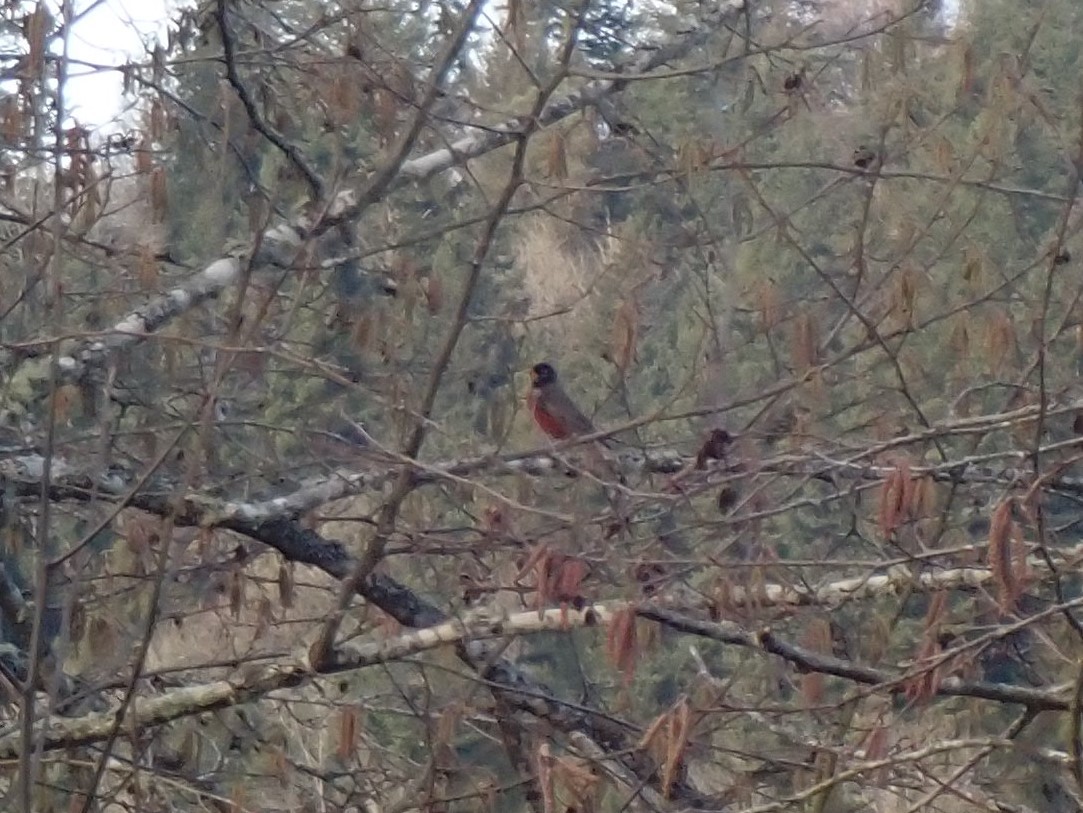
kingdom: Animalia
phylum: Chordata
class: Aves
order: Passeriformes
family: Turdidae
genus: Turdus
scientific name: Turdus migratorius
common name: American robin
